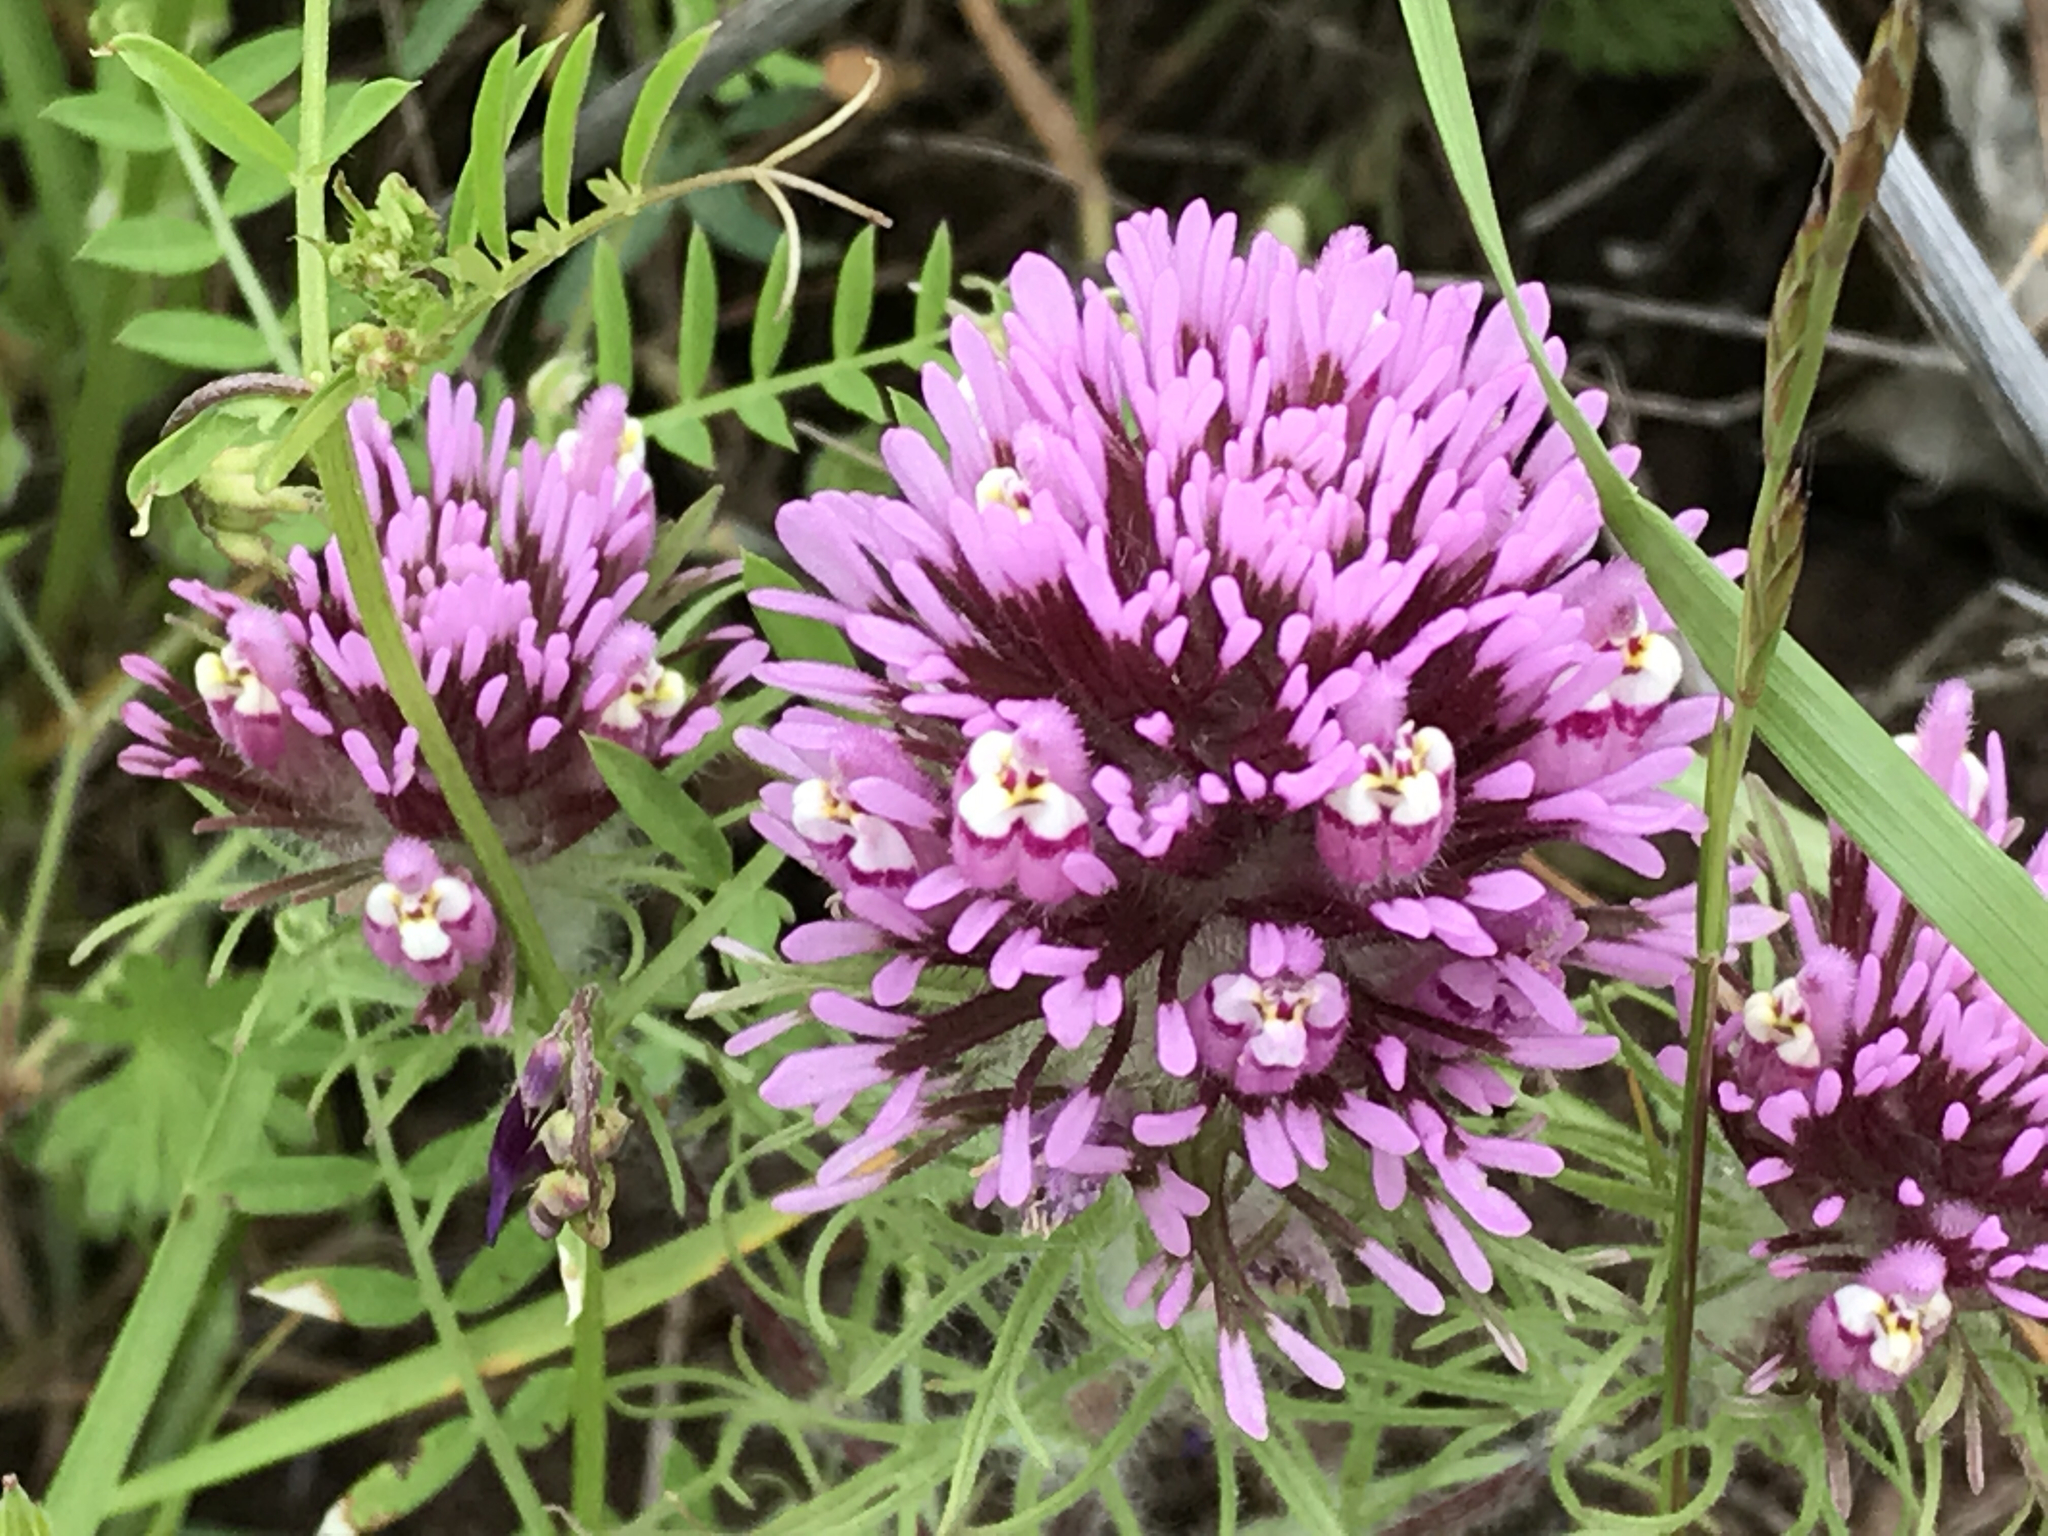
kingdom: Plantae
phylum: Tracheophyta
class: Magnoliopsida
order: Lamiales
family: Orobanchaceae
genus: Castilleja
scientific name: Castilleja exserta
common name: Purple owl-clover
